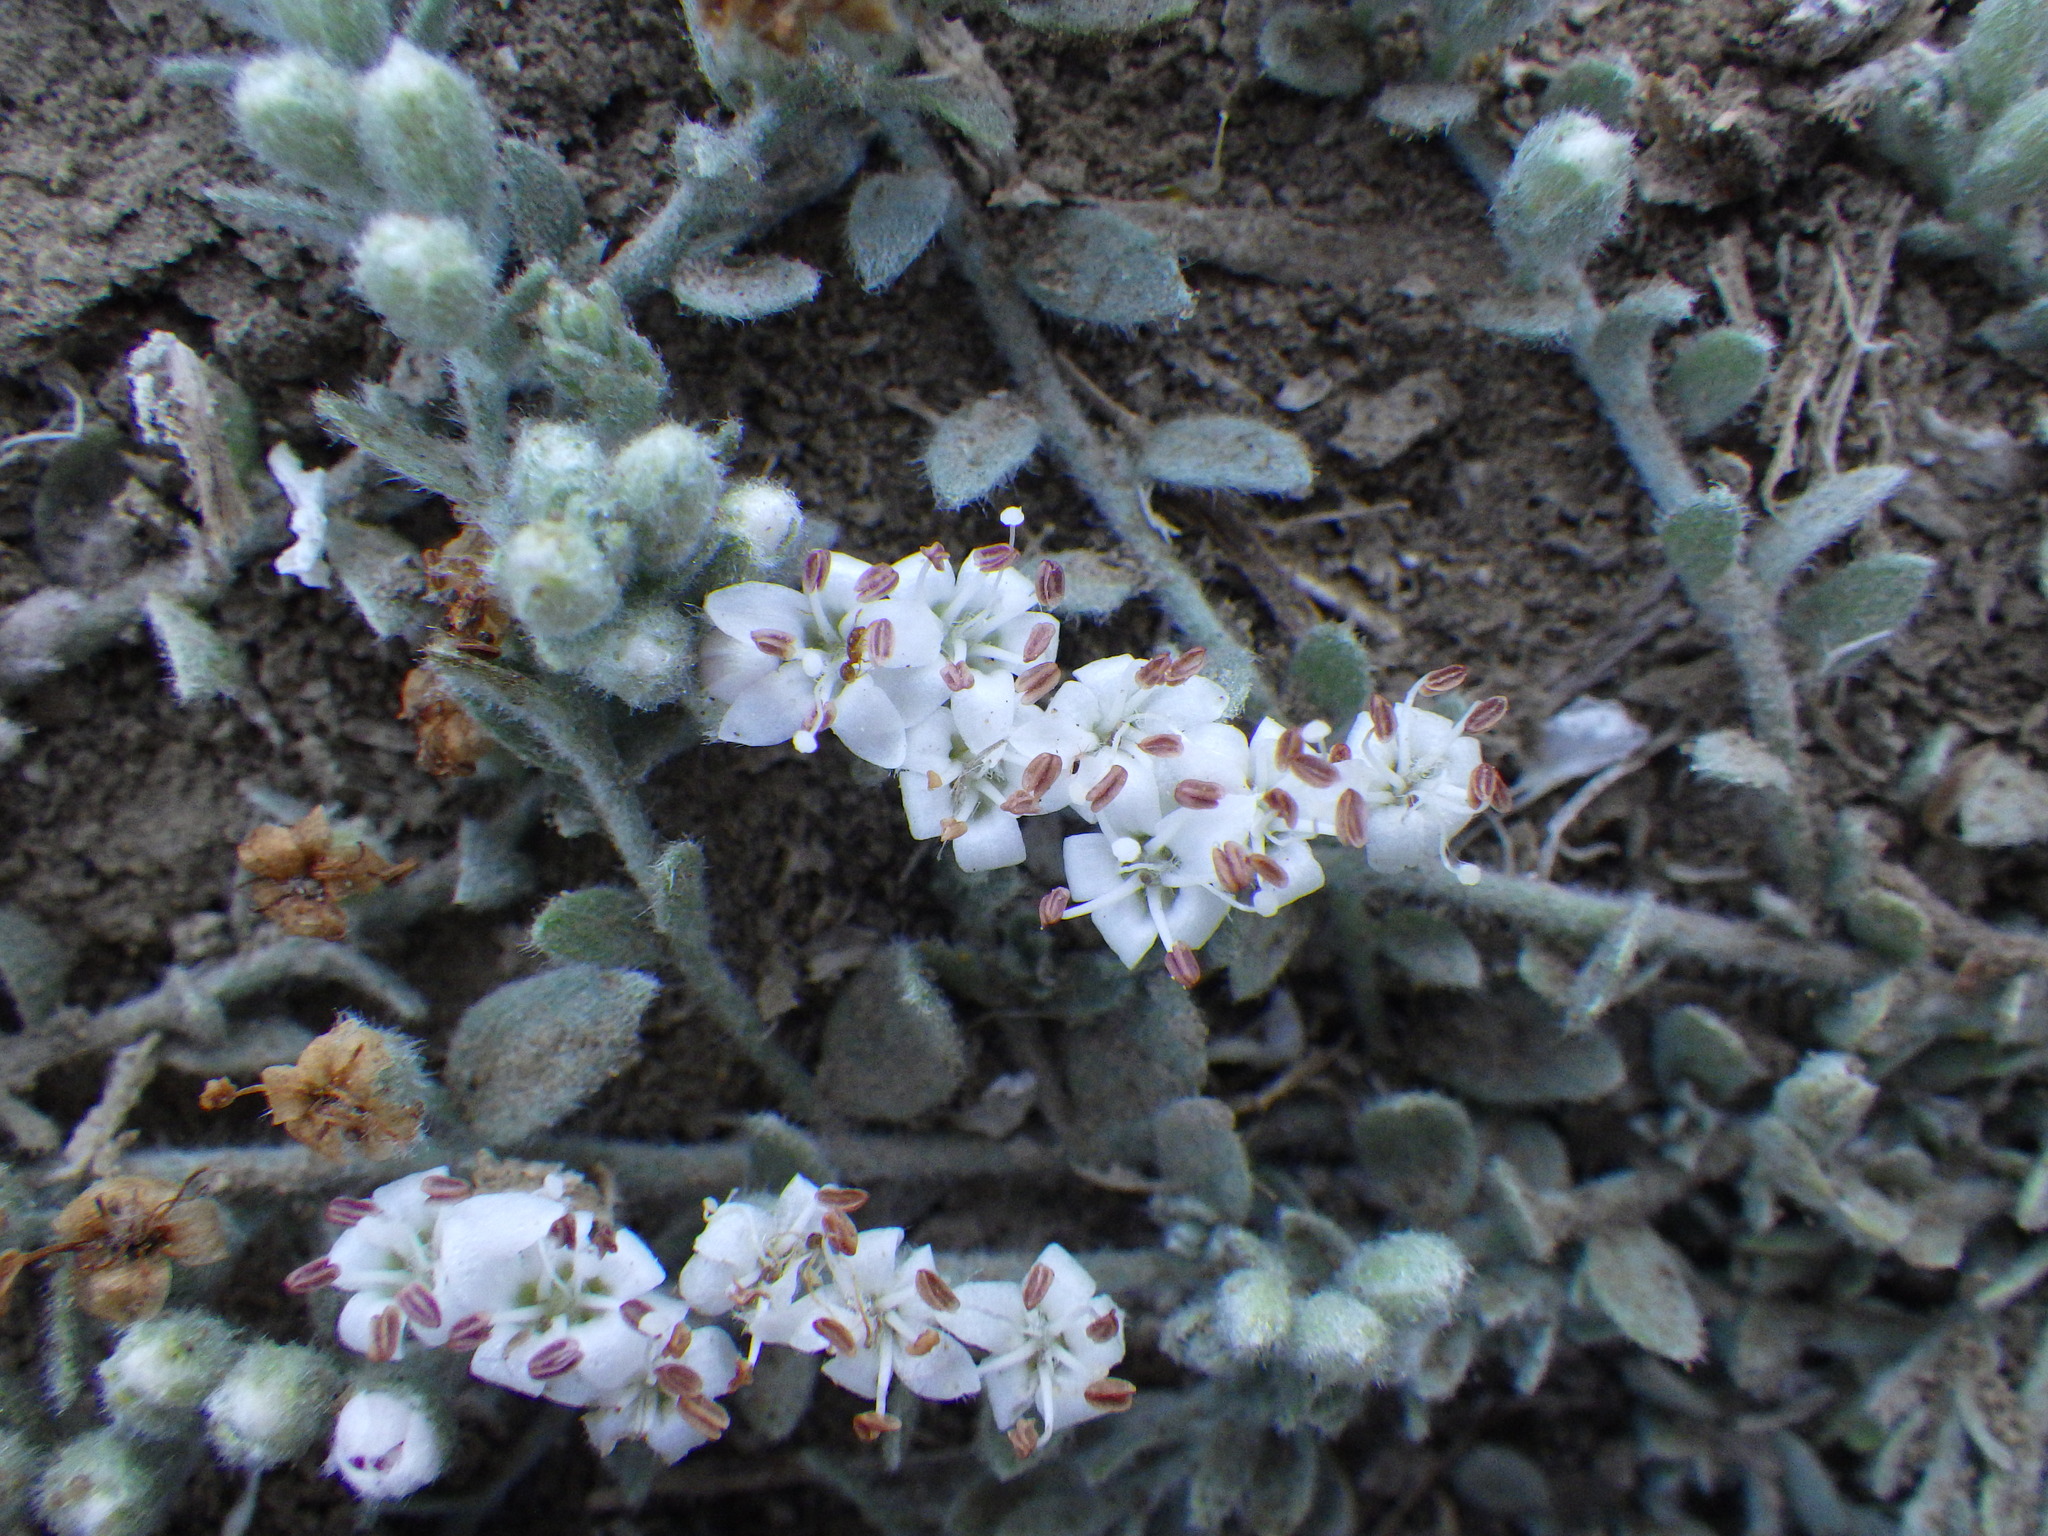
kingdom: Plantae
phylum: Tracheophyta
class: Magnoliopsida
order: Solanales
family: Convolvulaceae
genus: Cressa
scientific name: Cressa truxillensis
